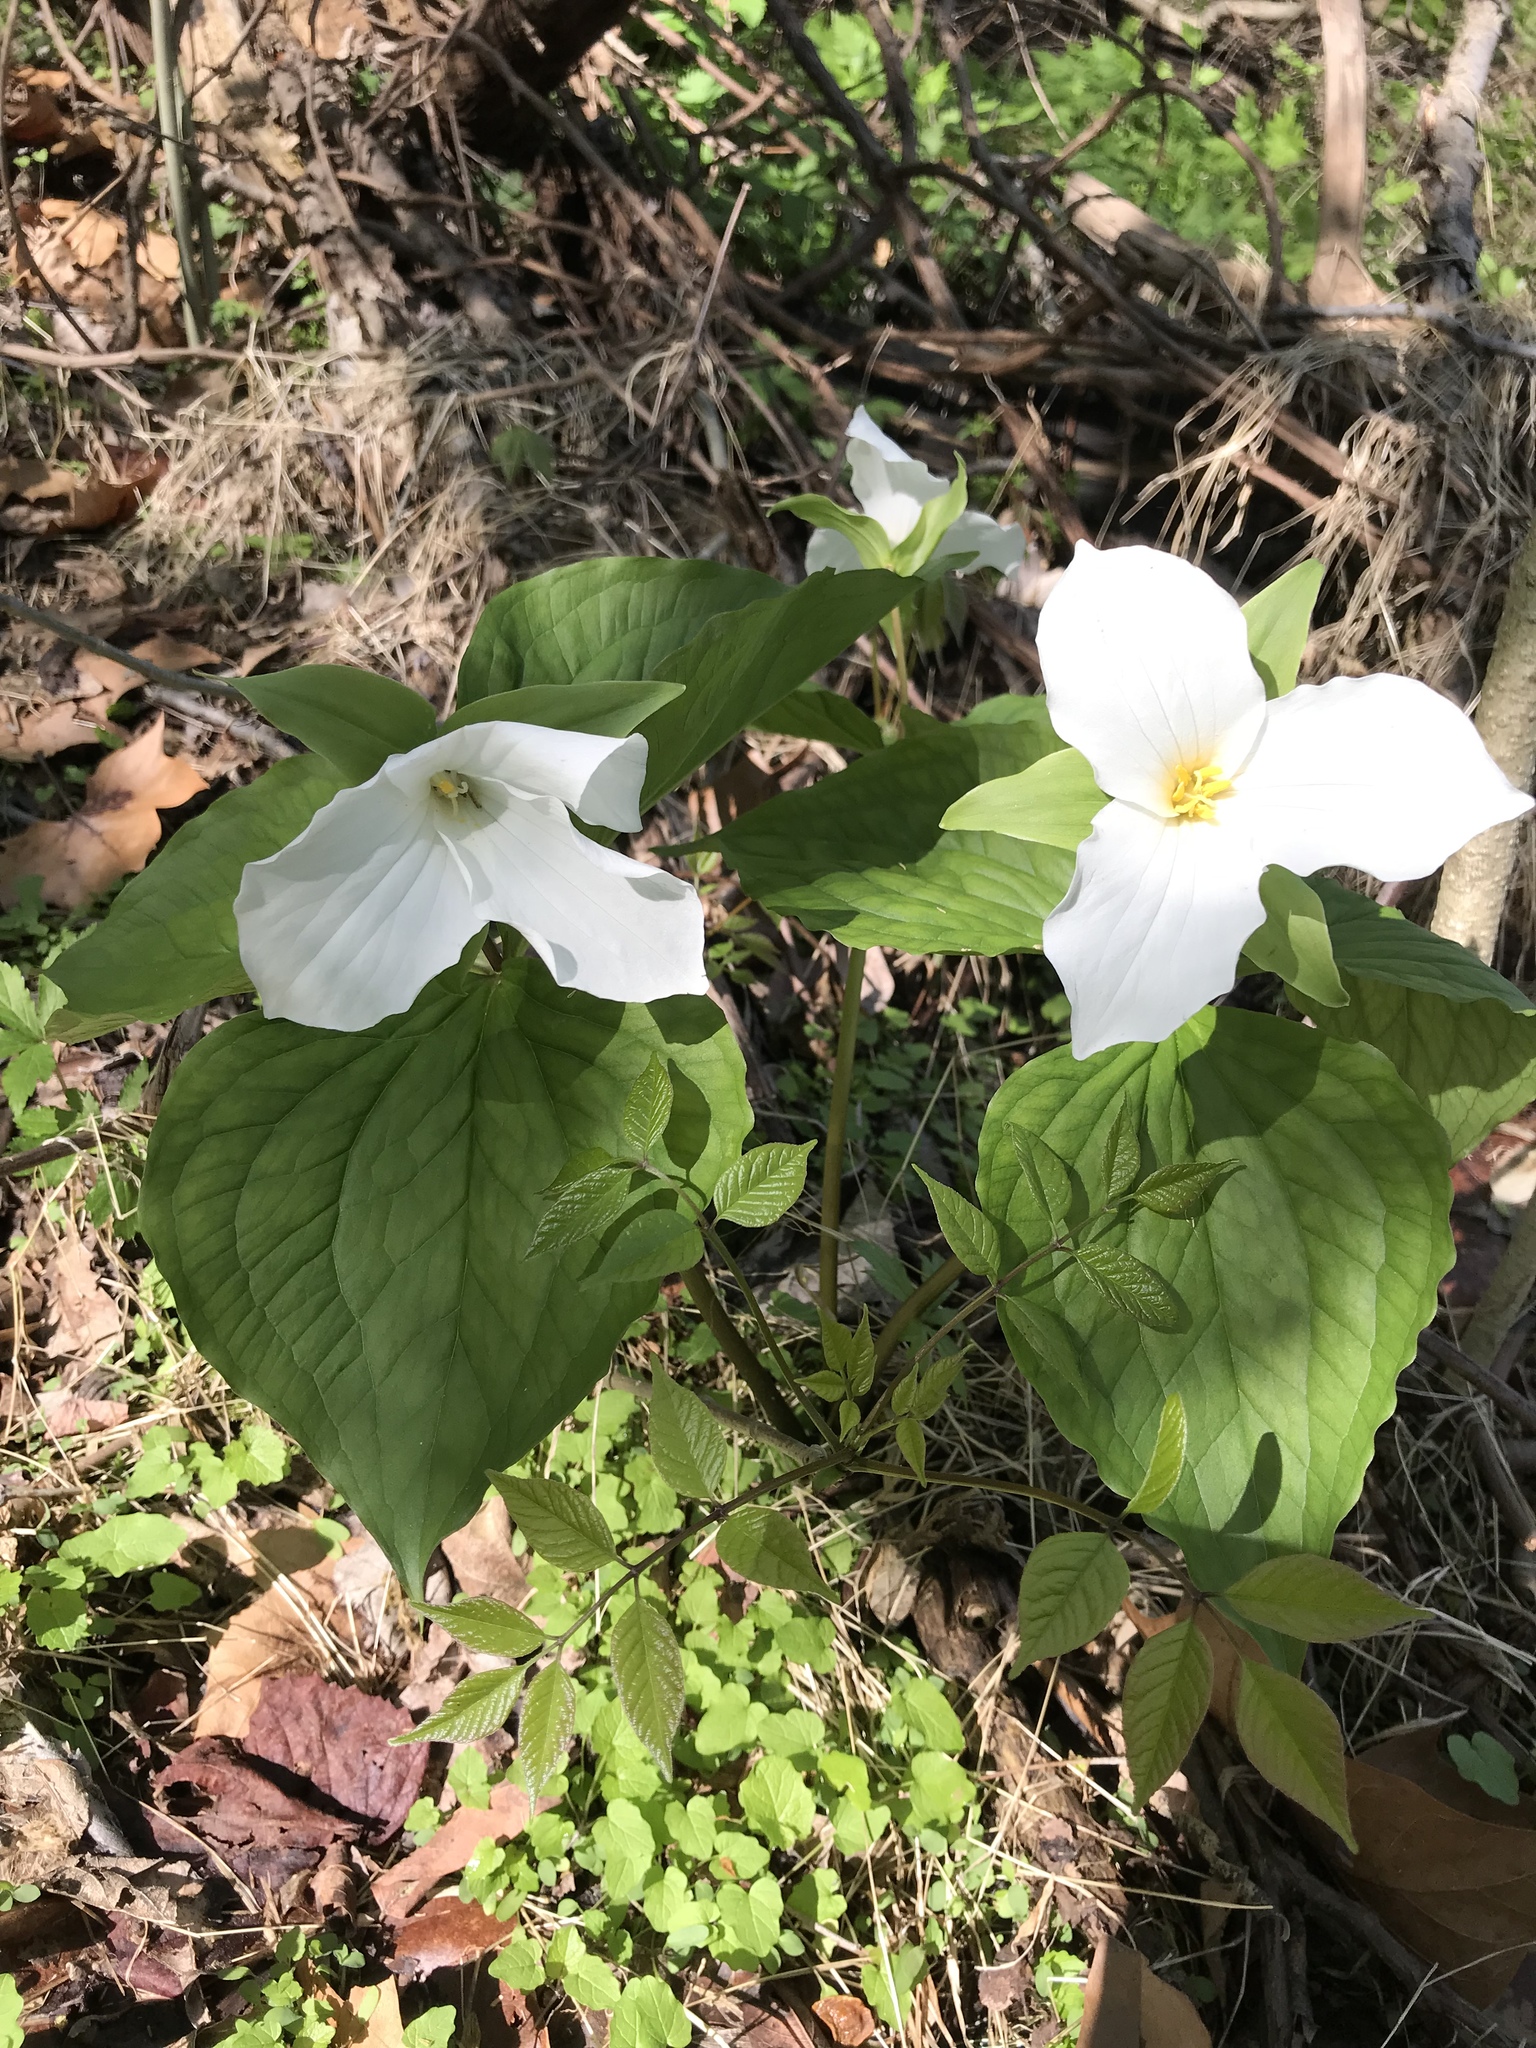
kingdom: Plantae
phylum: Tracheophyta
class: Liliopsida
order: Liliales
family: Melanthiaceae
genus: Trillium
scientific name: Trillium grandiflorum
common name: Great white trillium
